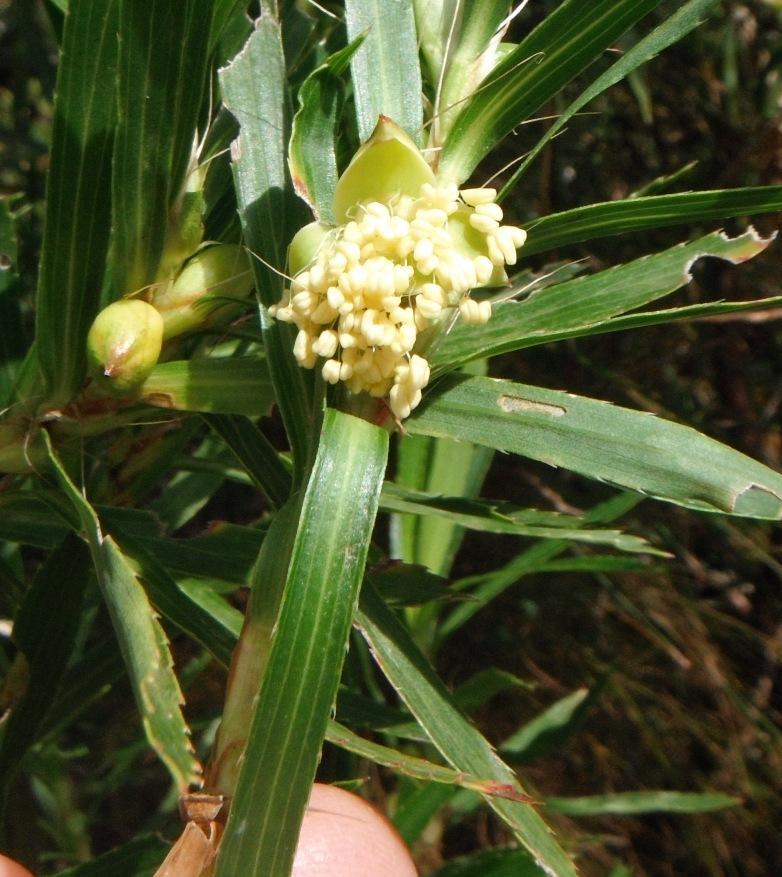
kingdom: Plantae
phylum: Tracheophyta
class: Magnoliopsida
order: Rosales
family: Rosaceae
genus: Cliffortia
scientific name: Cliffortia heterophylla
